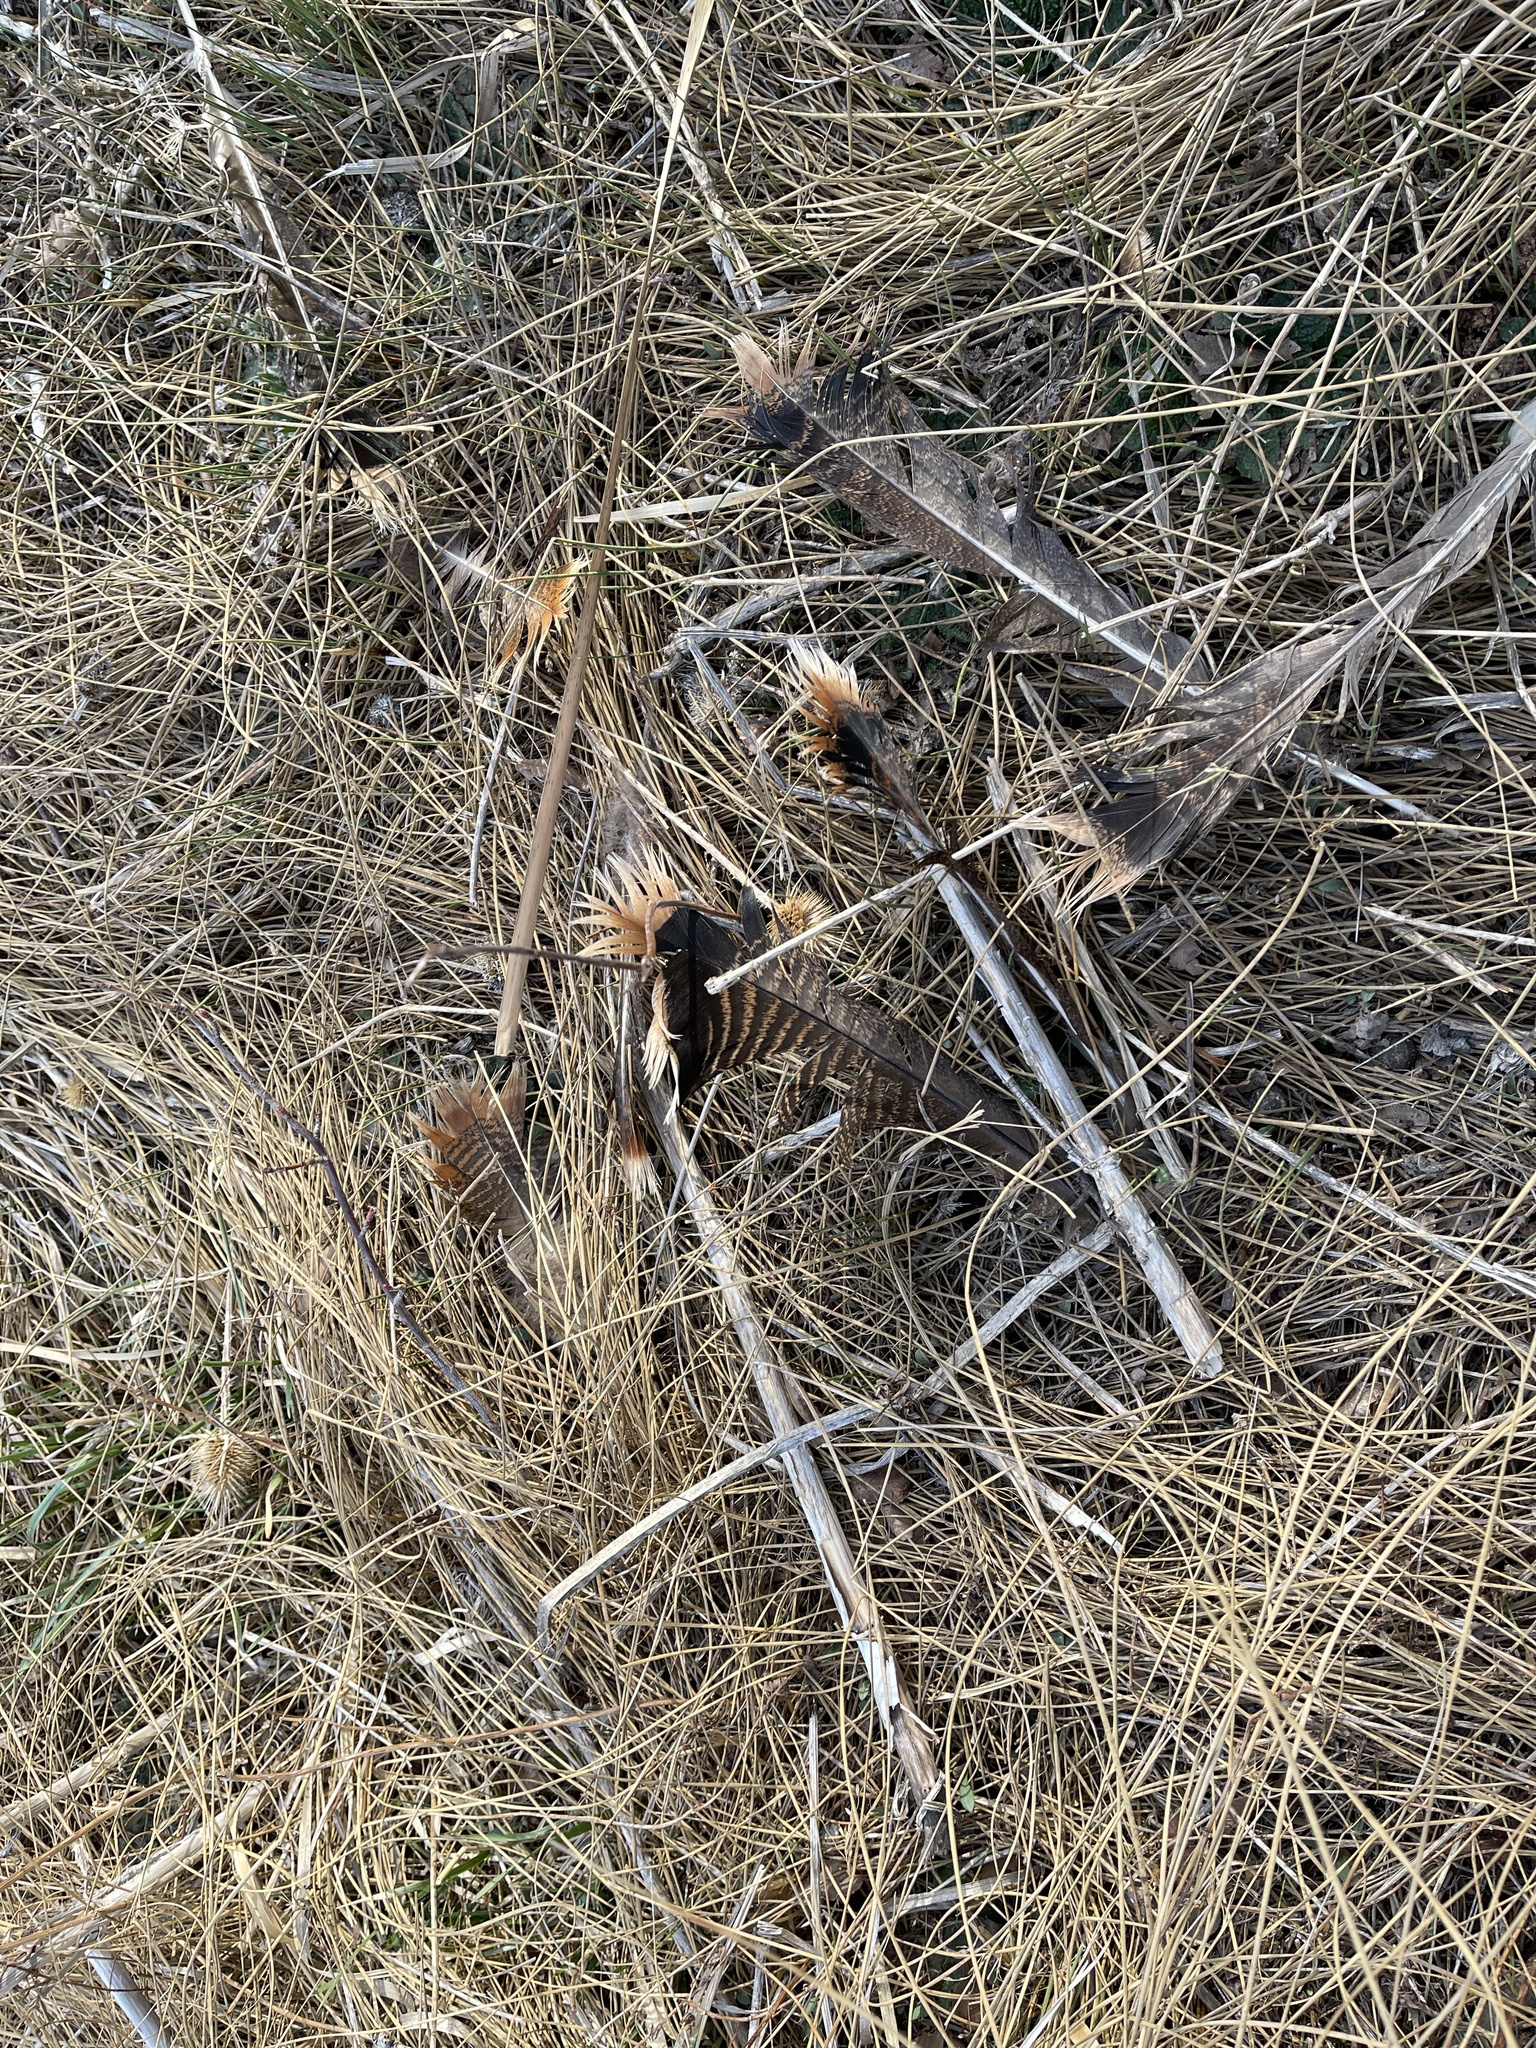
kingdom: Animalia
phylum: Chordata
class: Aves
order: Galliformes
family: Phasianidae
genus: Meleagris
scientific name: Meleagris gallopavo
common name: Wild turkey
